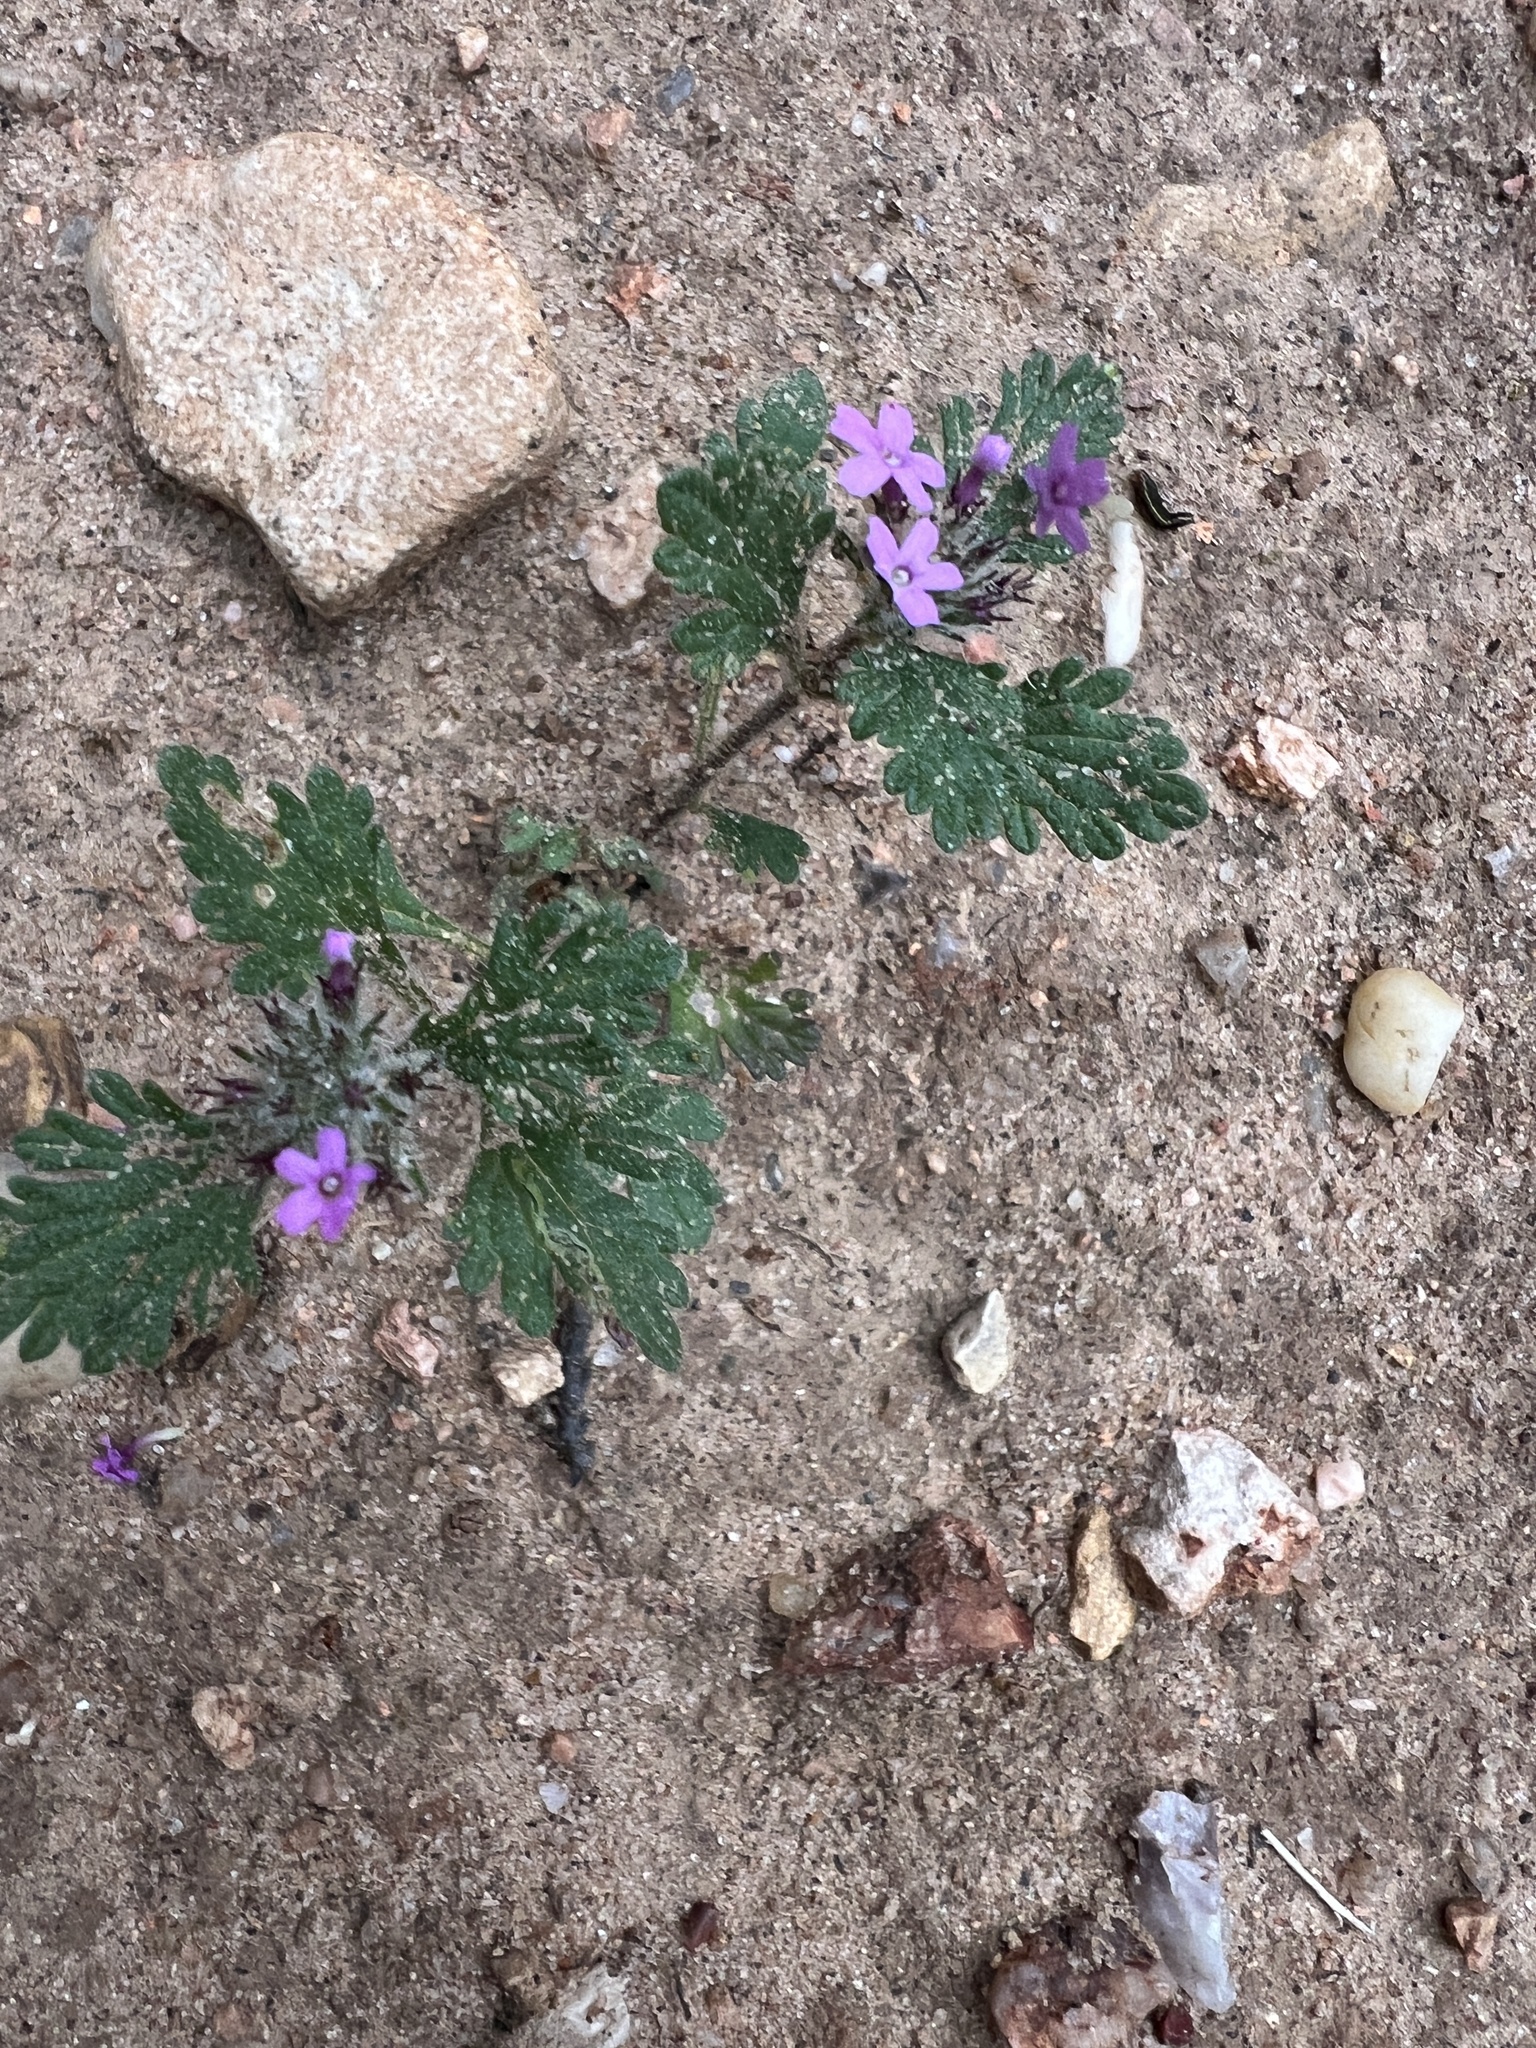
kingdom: Plantae
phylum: Tracheophyta
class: Magnoliopsida
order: Lamiales
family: Verbenaceae
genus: Verbena
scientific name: Verbena pumila
